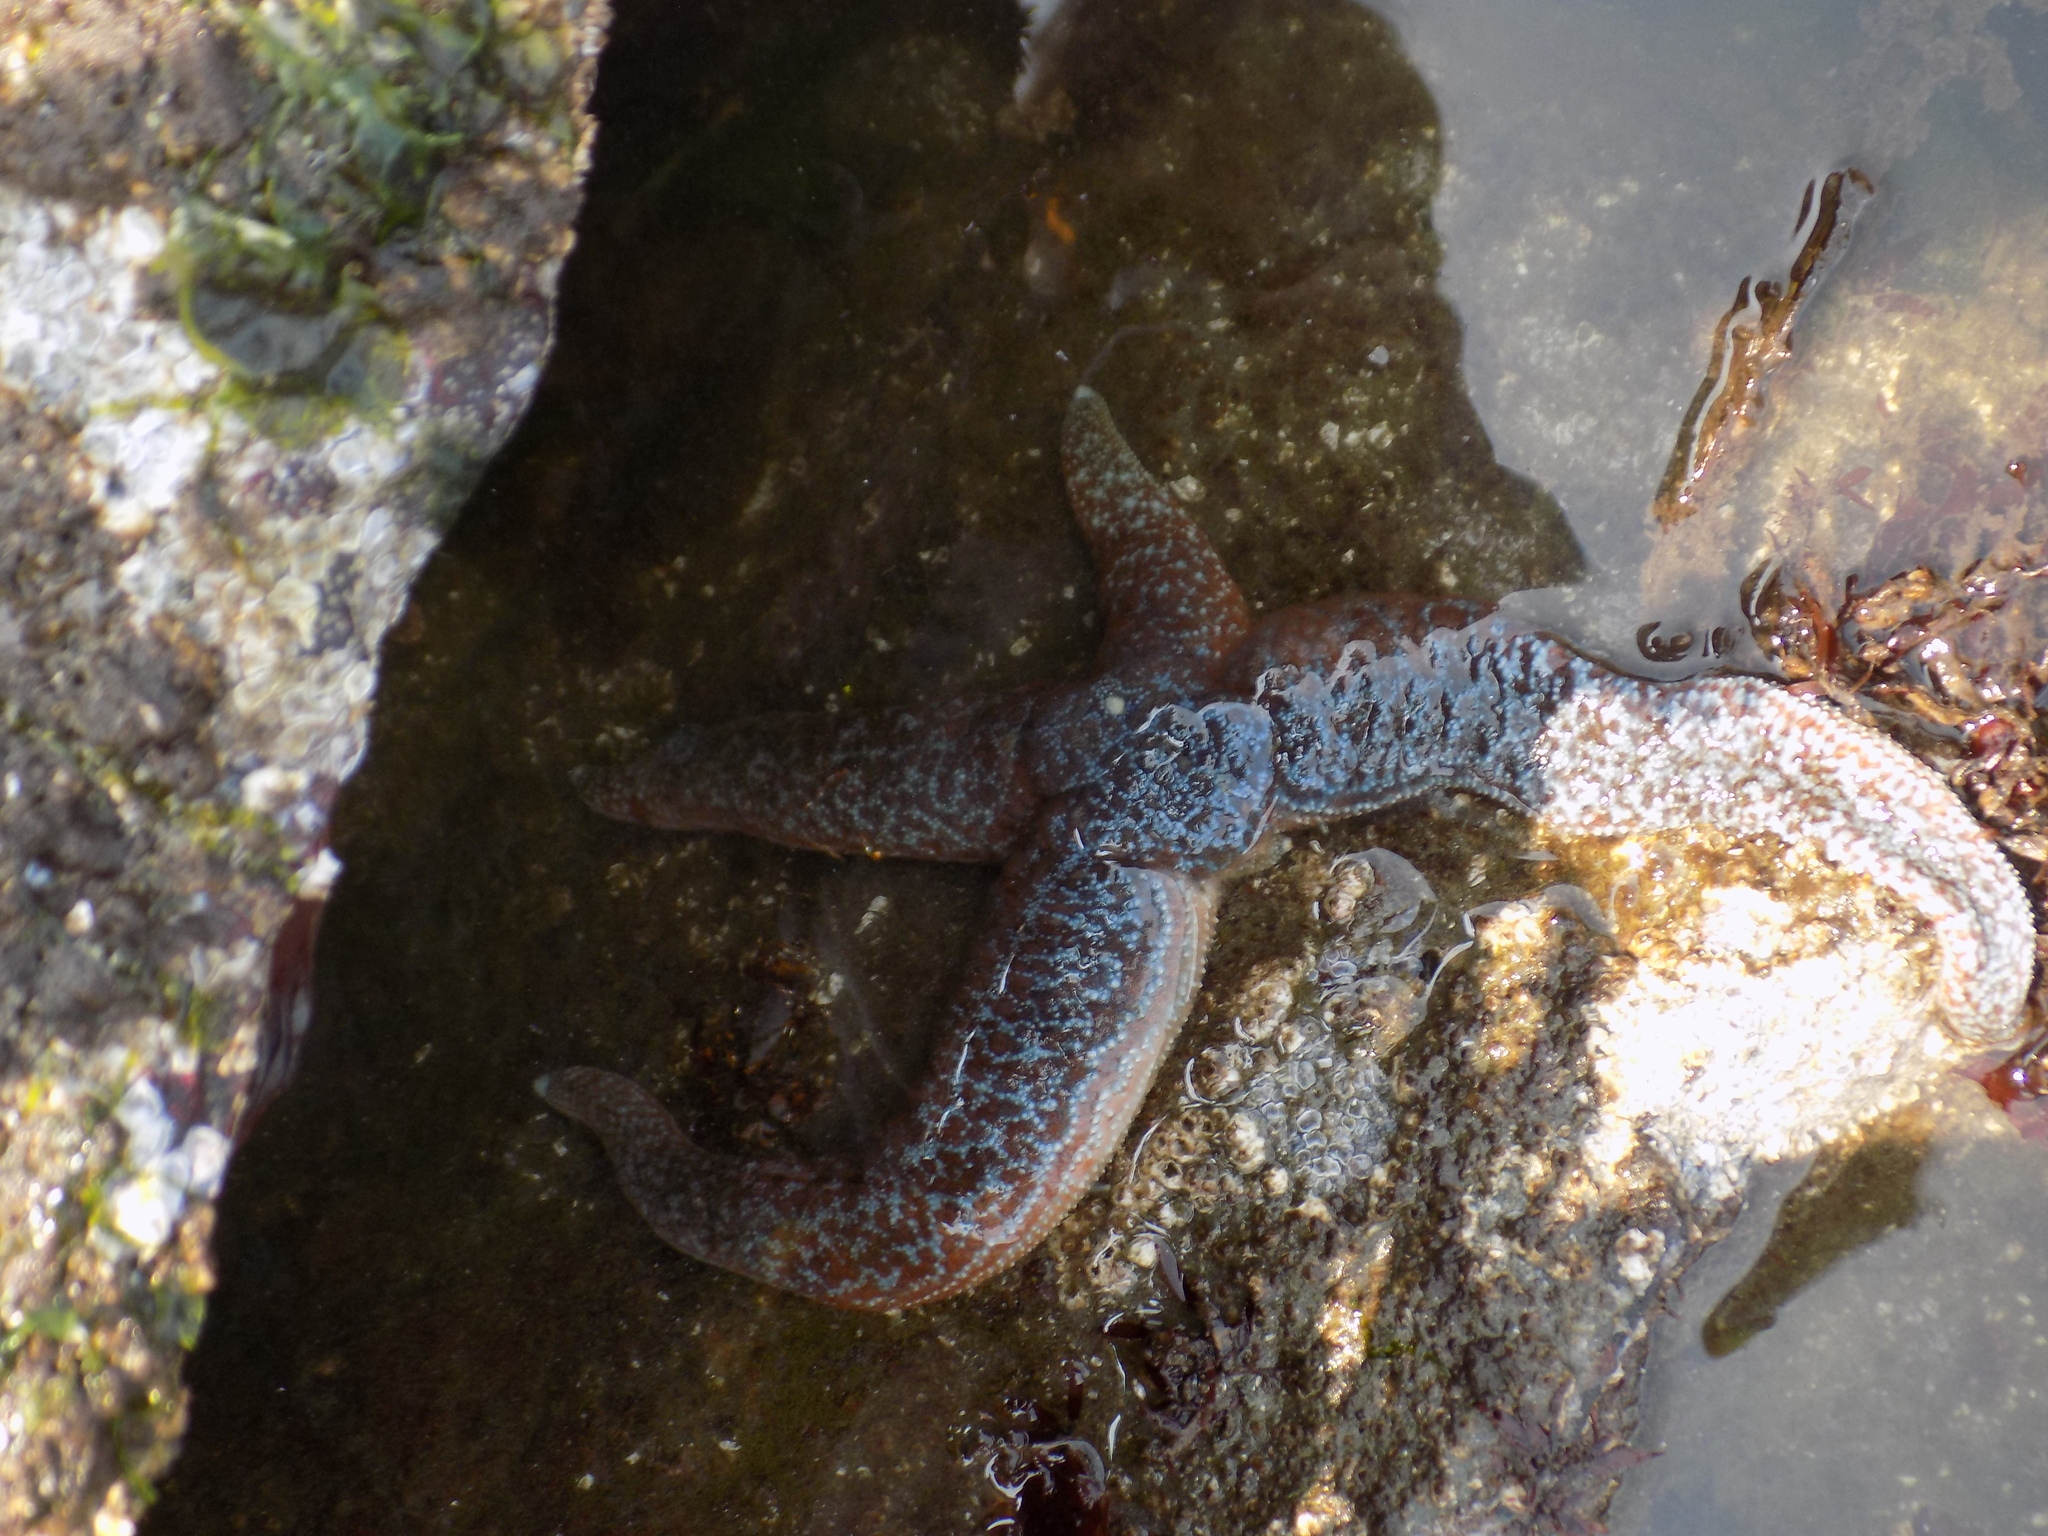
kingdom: Animalia
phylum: Echinodermata
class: Asteroidea
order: Forcipulatida
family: Asteriidae
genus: Evasterias
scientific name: Evasterias troschelii
